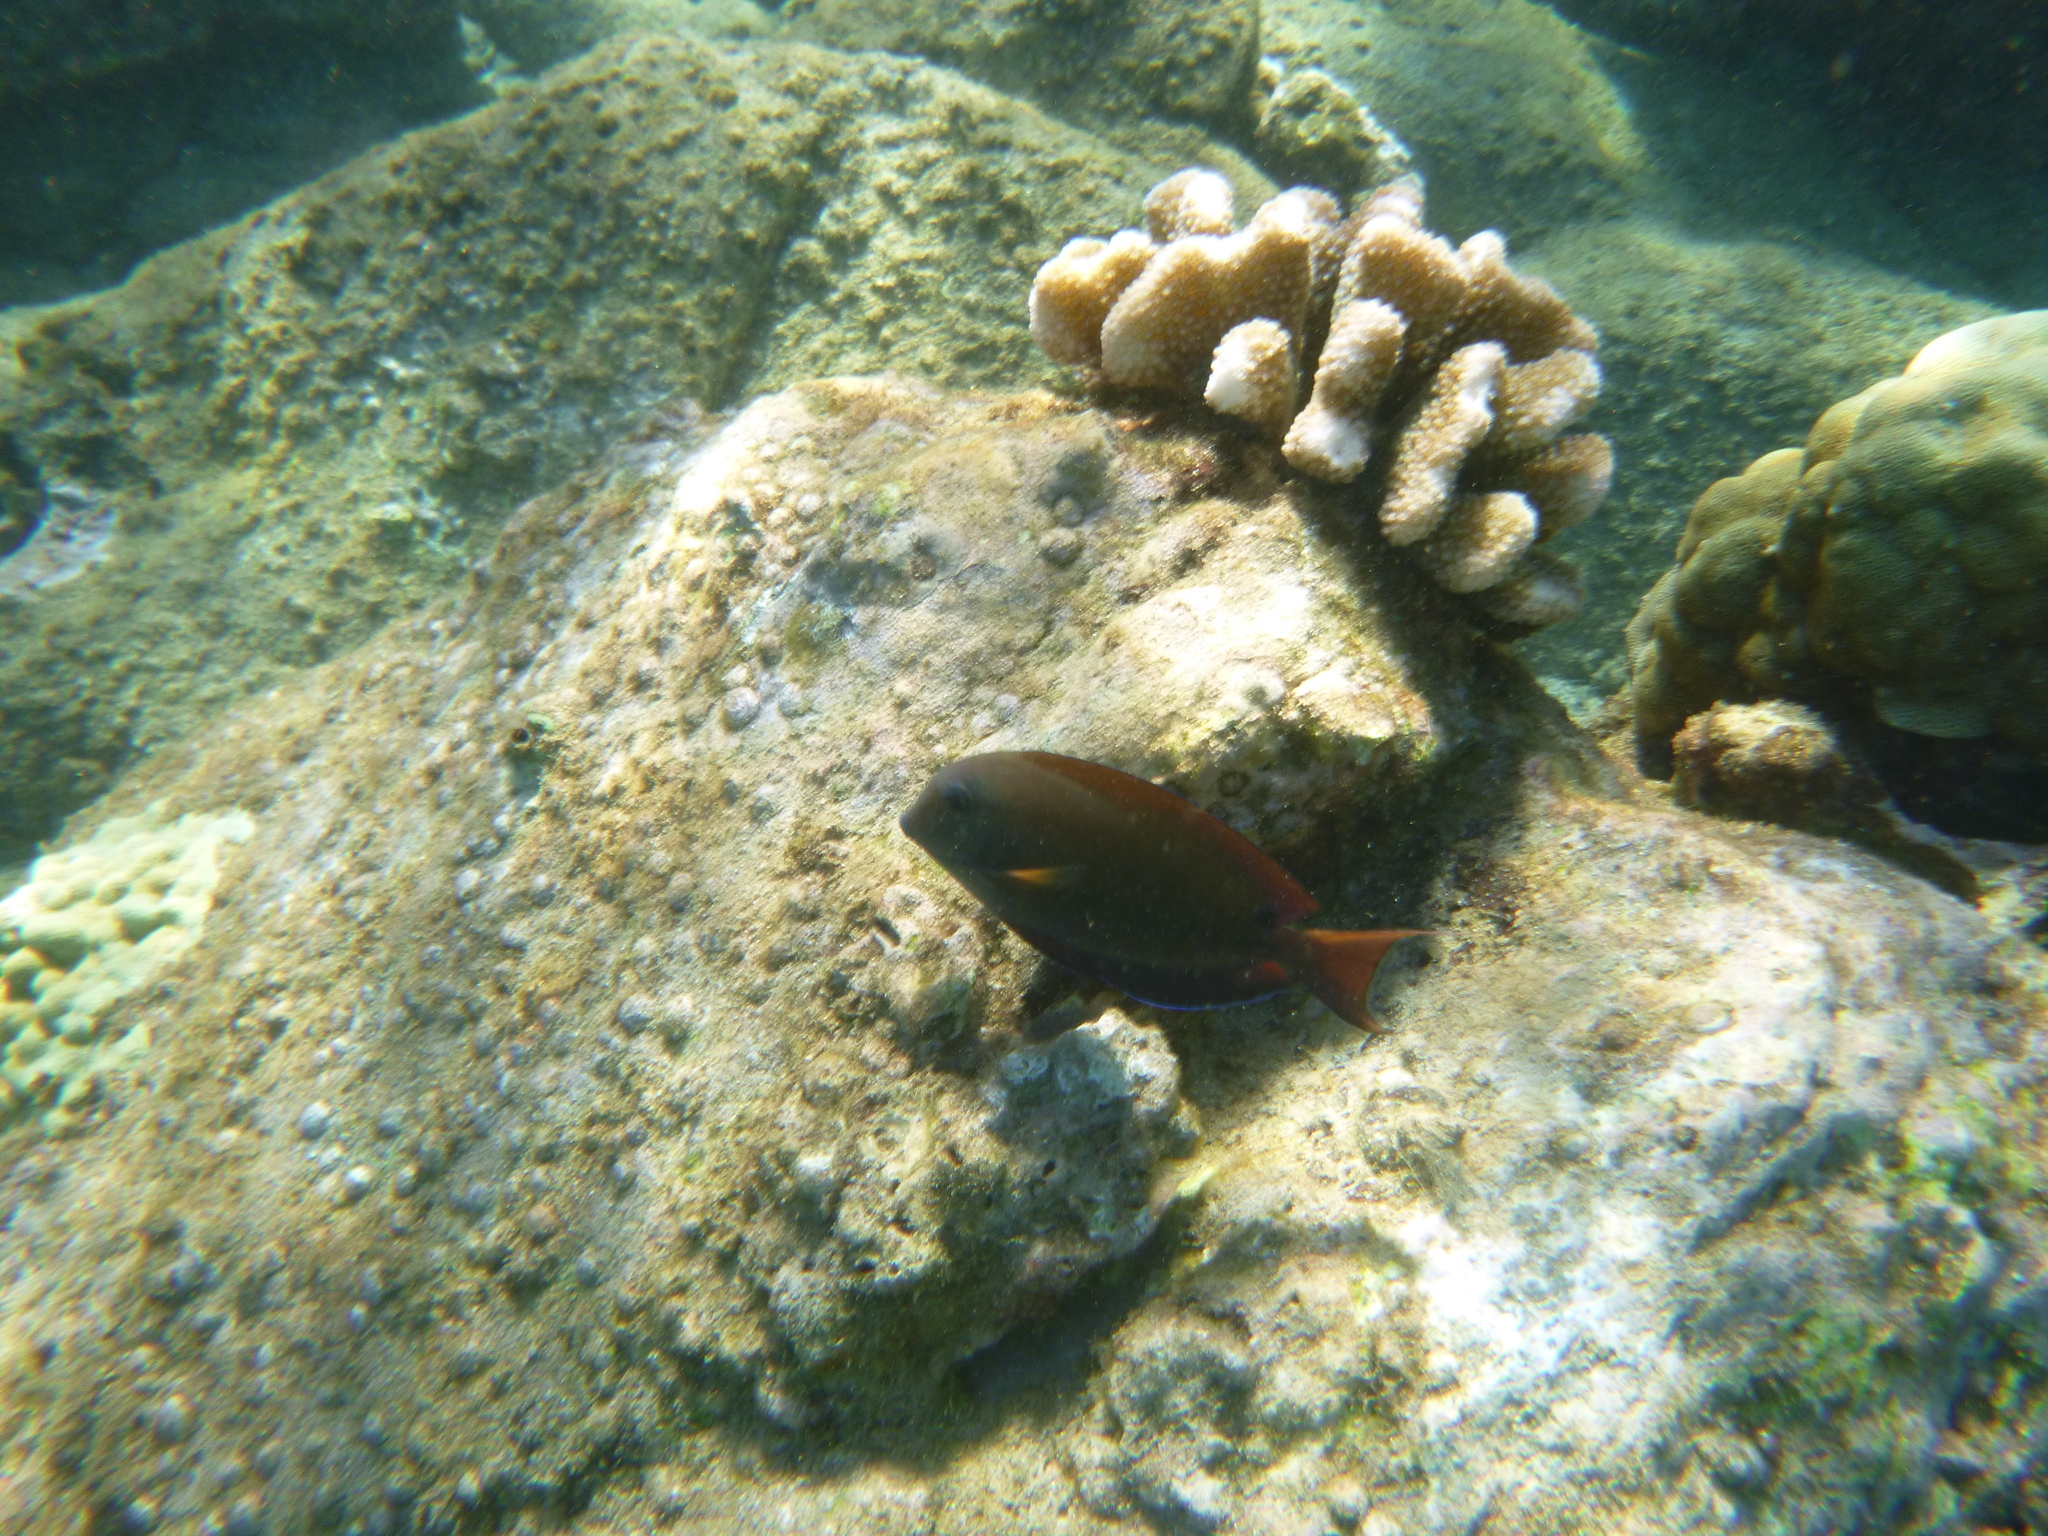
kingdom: Animalia
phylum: Chordata
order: Perciformes
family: Acanthuridae
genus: Acanthurus
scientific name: Acanthurus nigrofuscus
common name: Blackspot surgeonfish
